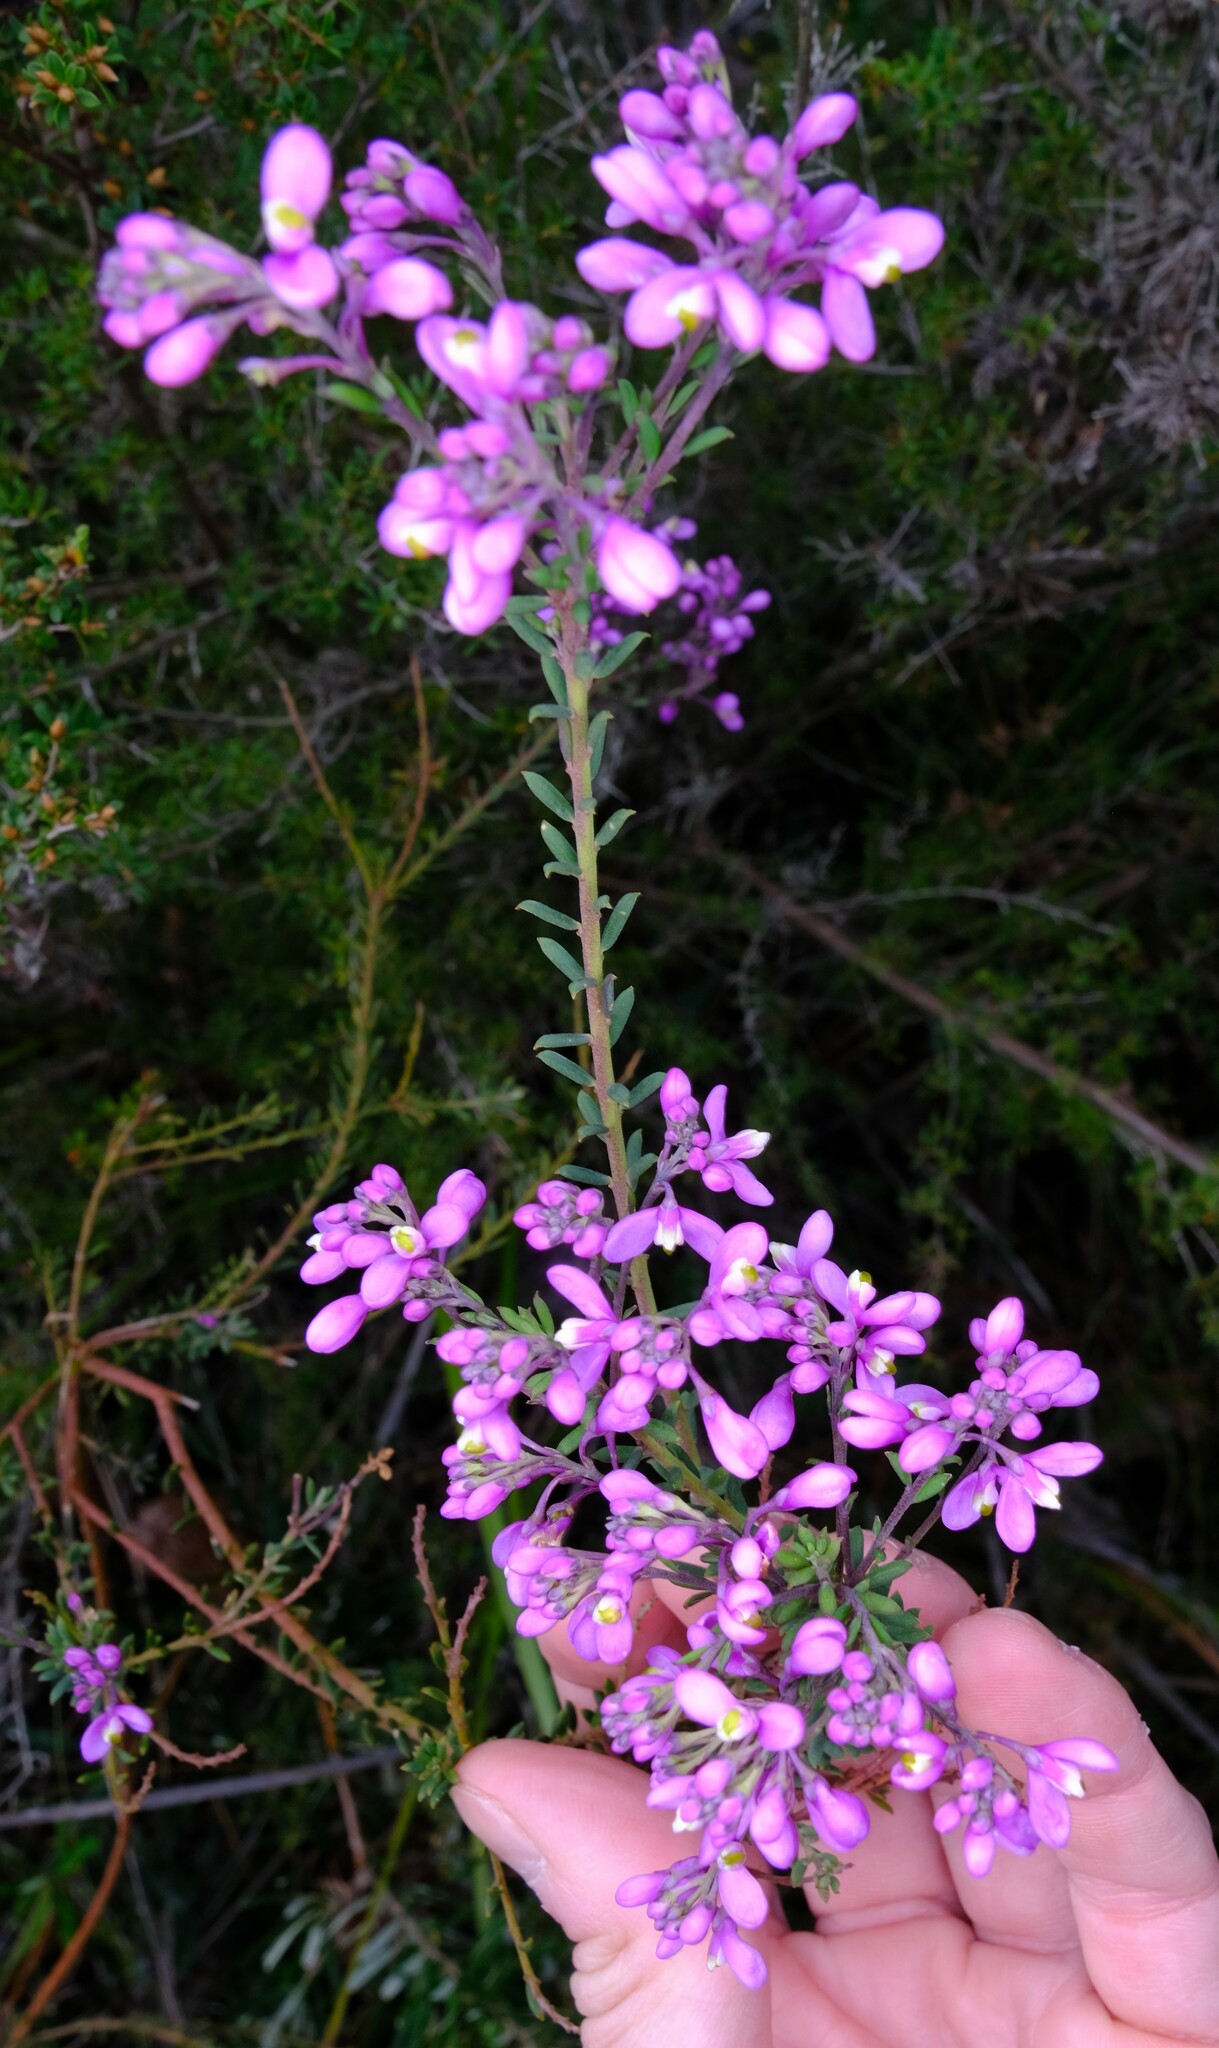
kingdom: Plantae
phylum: Tracheophyta
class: Magnoliopsida
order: Fabales
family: Polygalaceae
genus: Comesperma
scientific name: Comesperma ericinum
